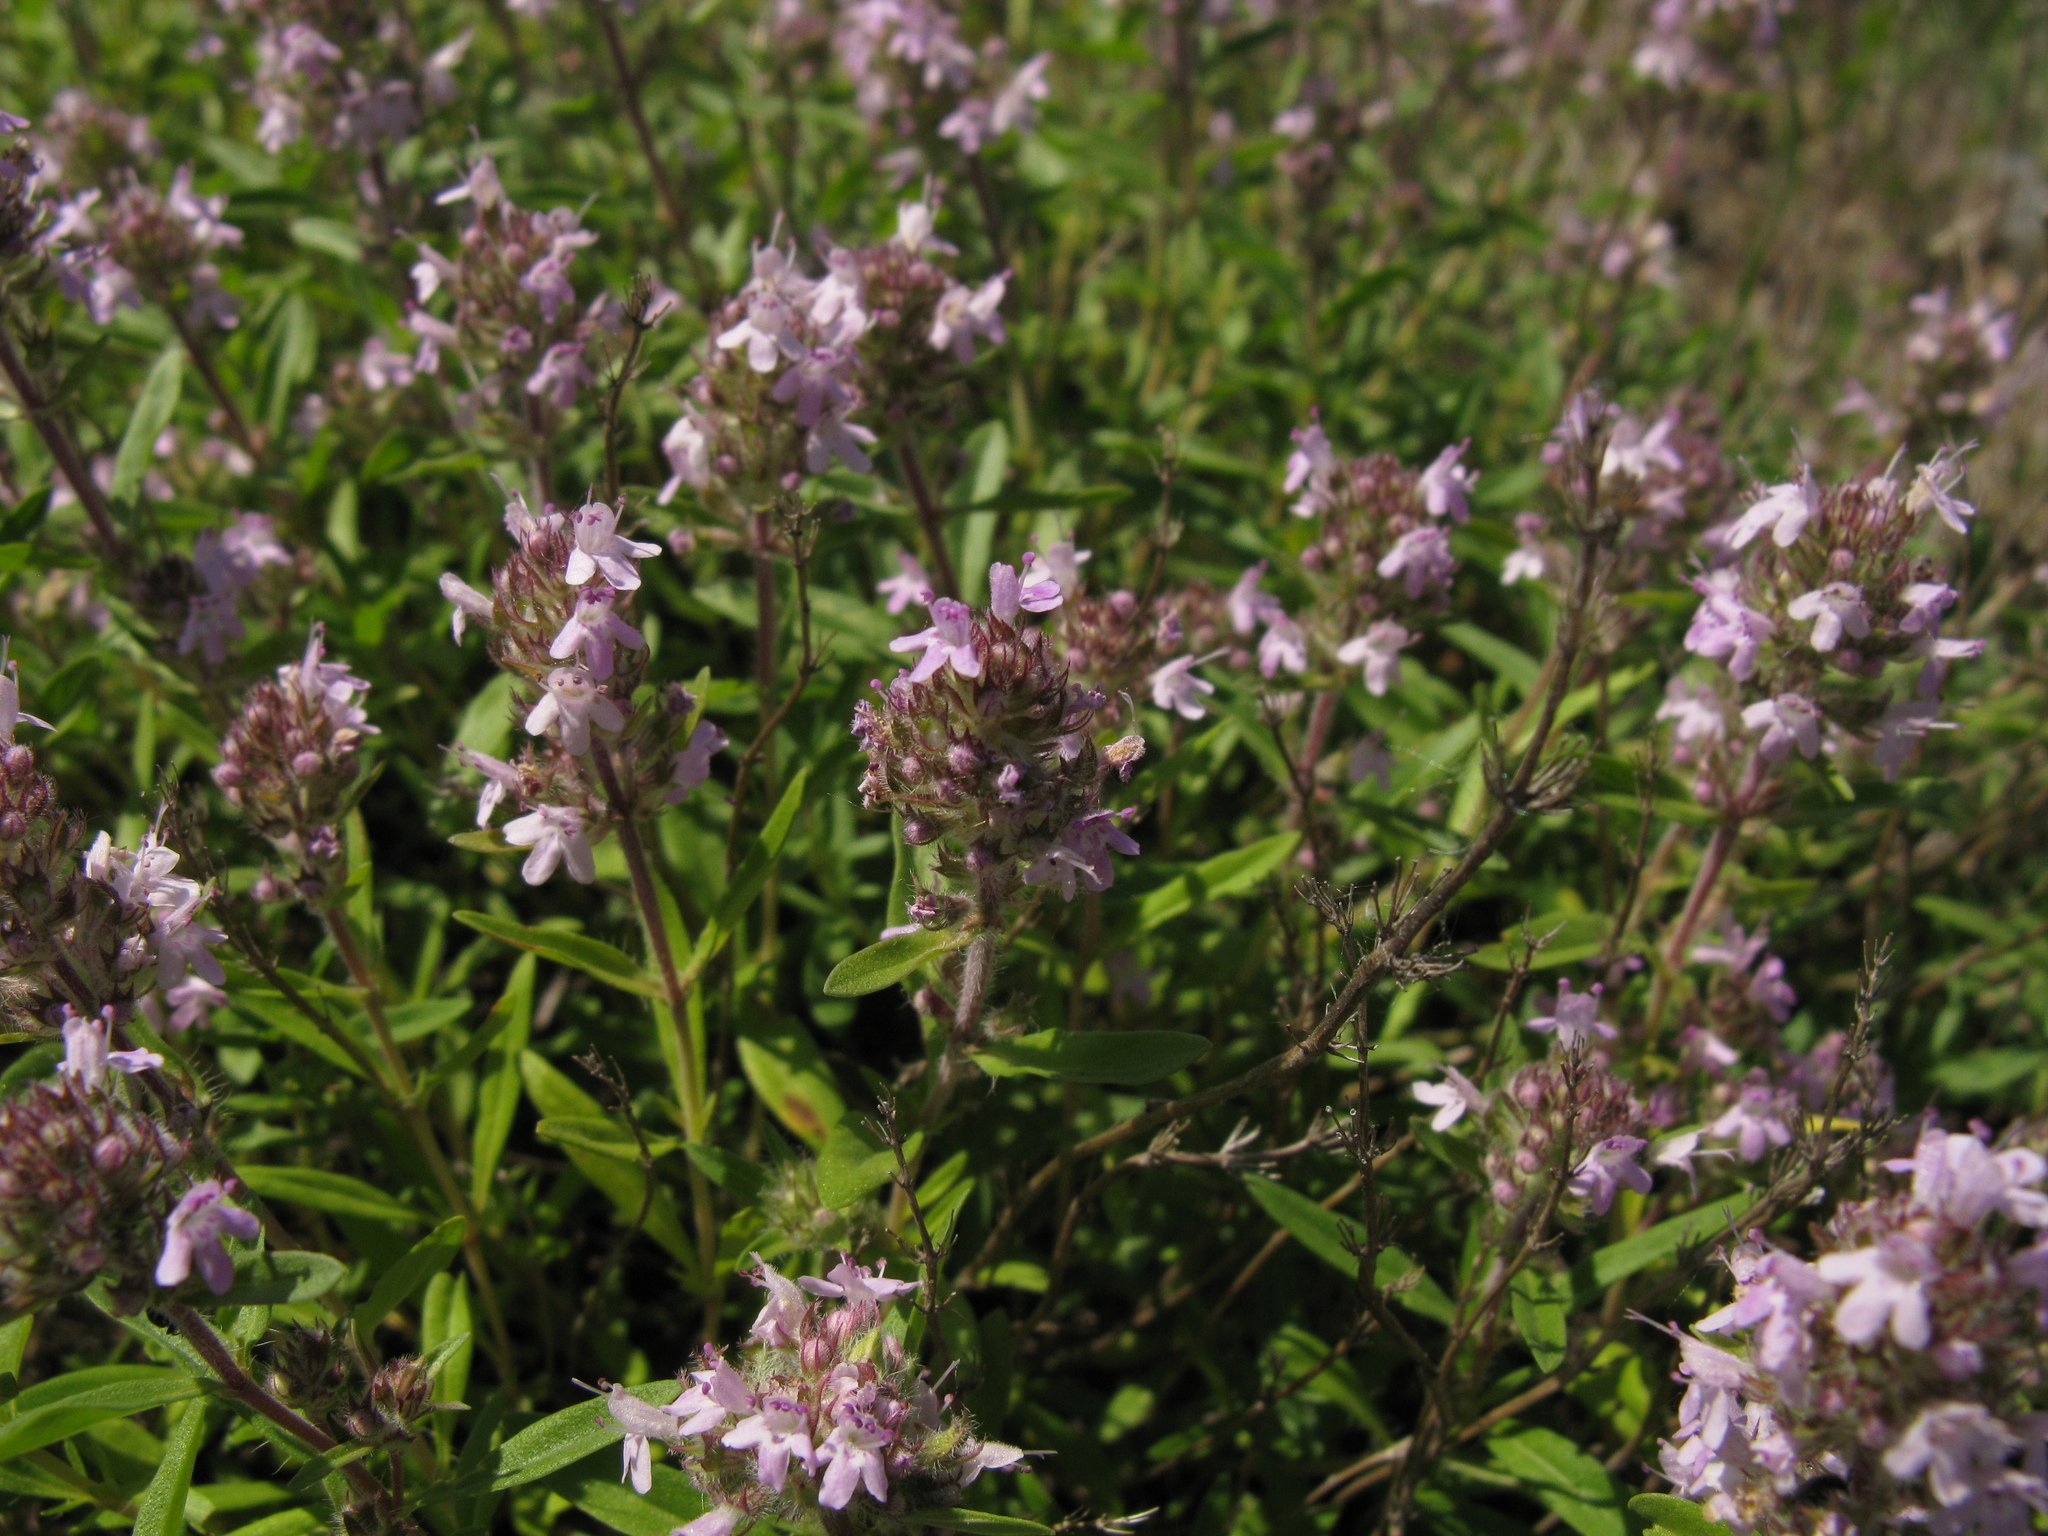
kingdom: Plantae
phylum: Tracheophyta
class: Magnoliopsida
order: Lamiales
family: Lamiaceae
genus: Thymus
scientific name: Thymus dimorphus
